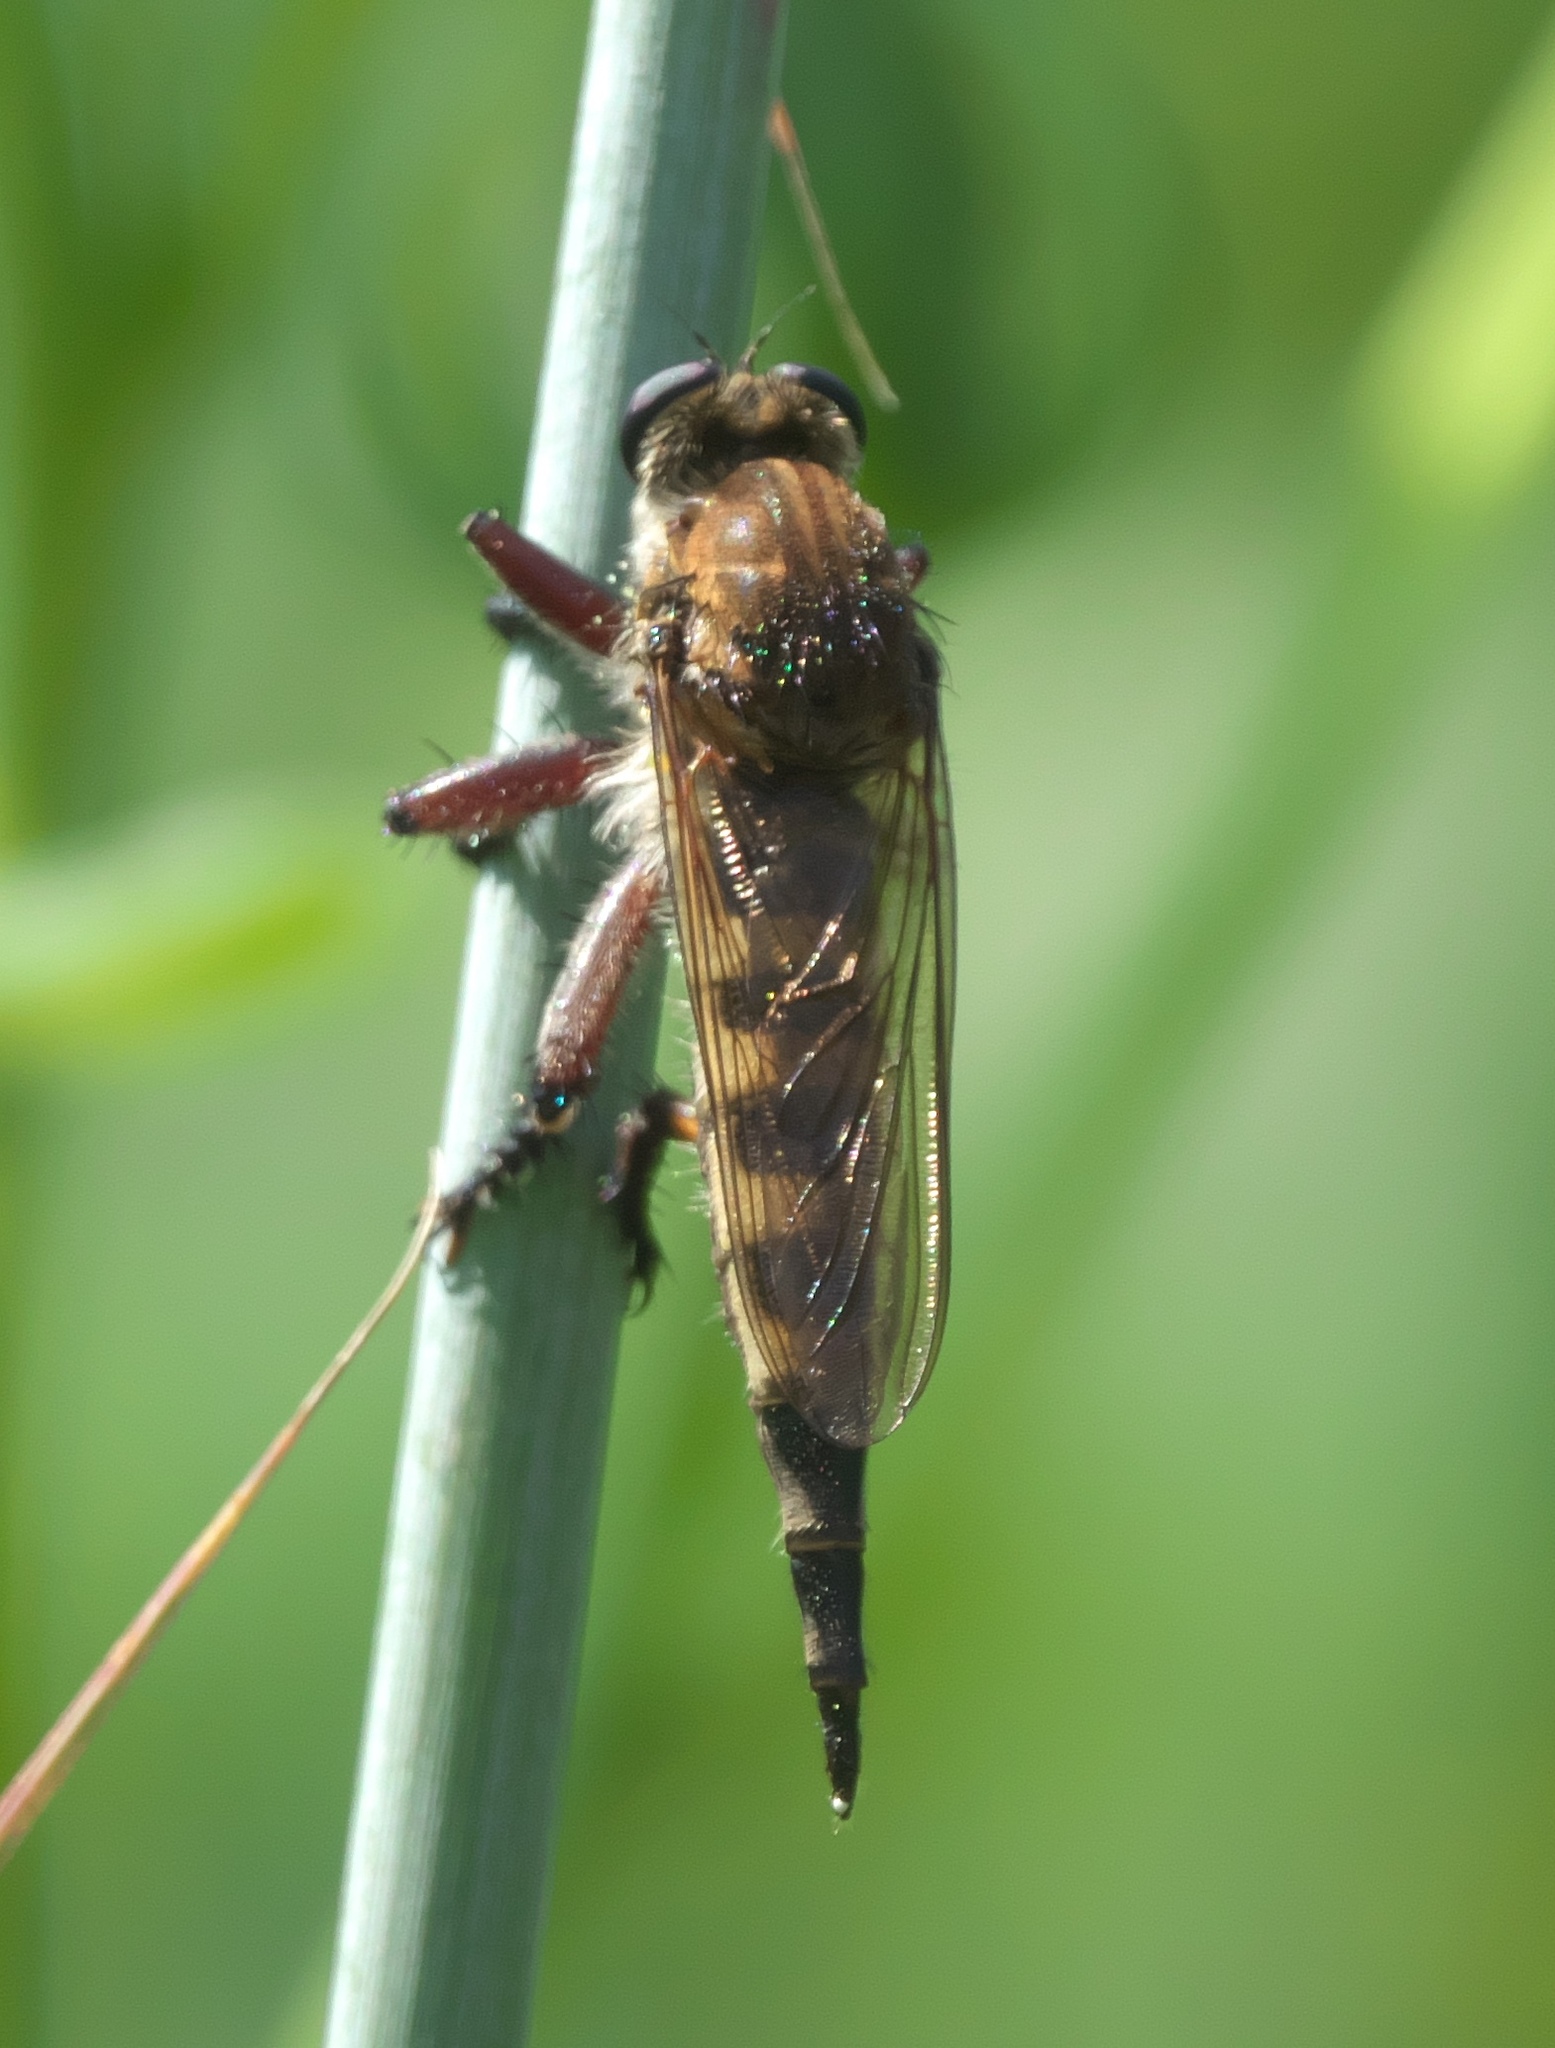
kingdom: Animalia
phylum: Arthropoda
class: Insecta
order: Diptera
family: Asilidae
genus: Promachus
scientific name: Promachus hinei
